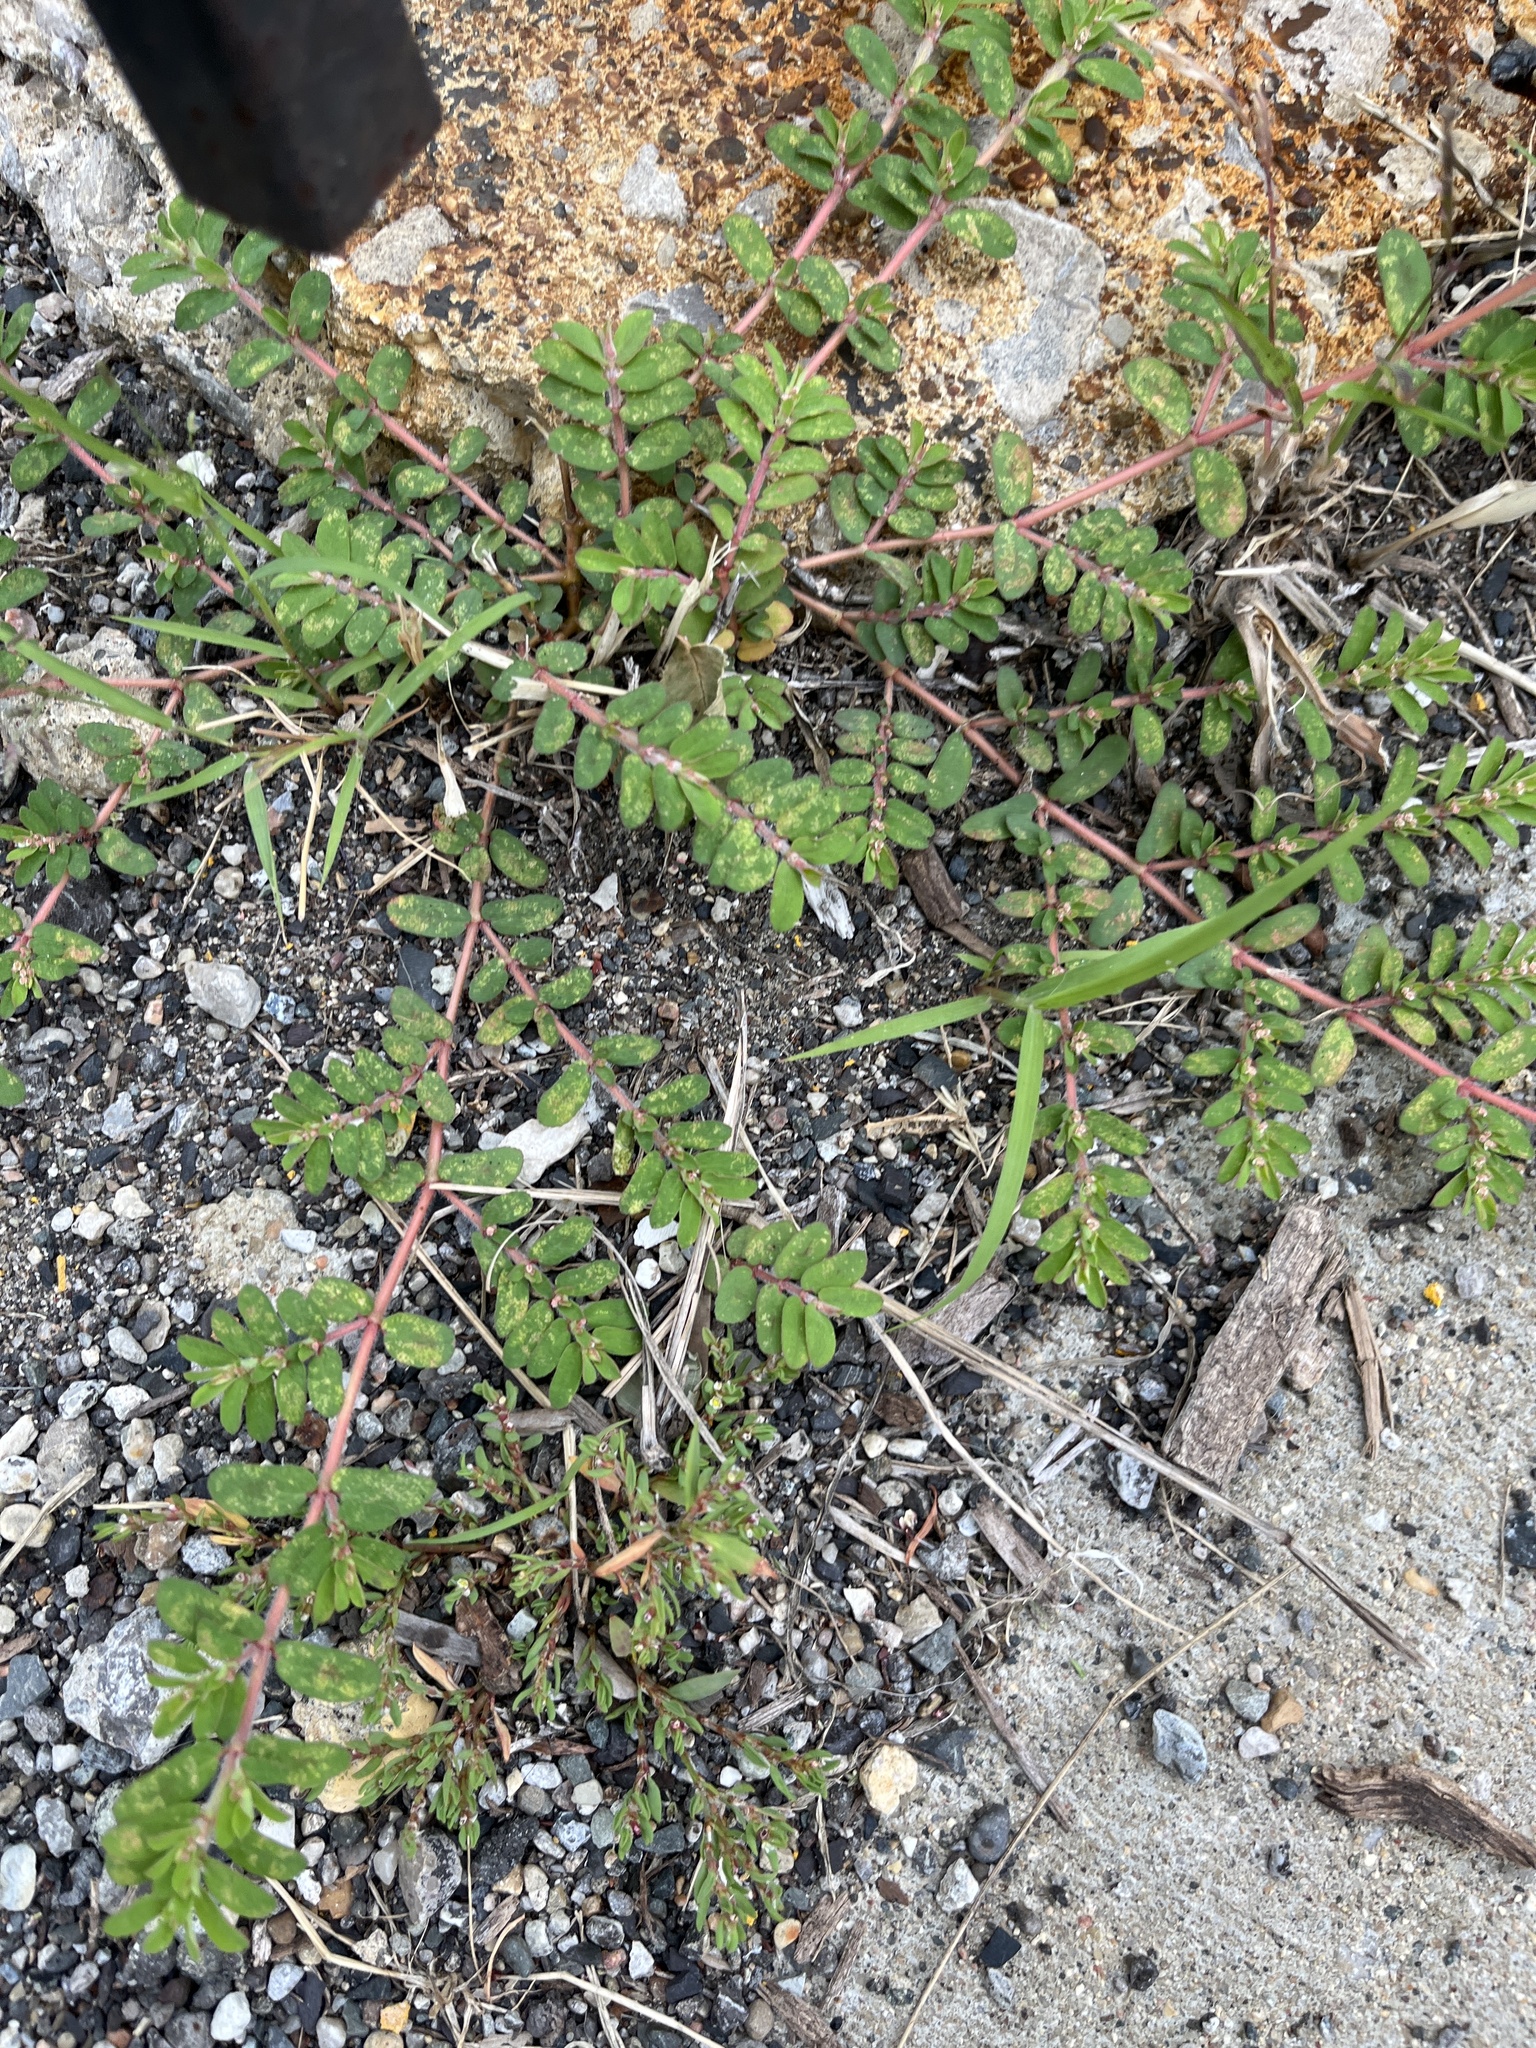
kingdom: Plantae
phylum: Tracheophyta
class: Magnoliopsida
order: Malpighiales
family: Euphorbiaceae
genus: Euphorbia
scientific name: Euphorbia maculata
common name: Spotted spurge
